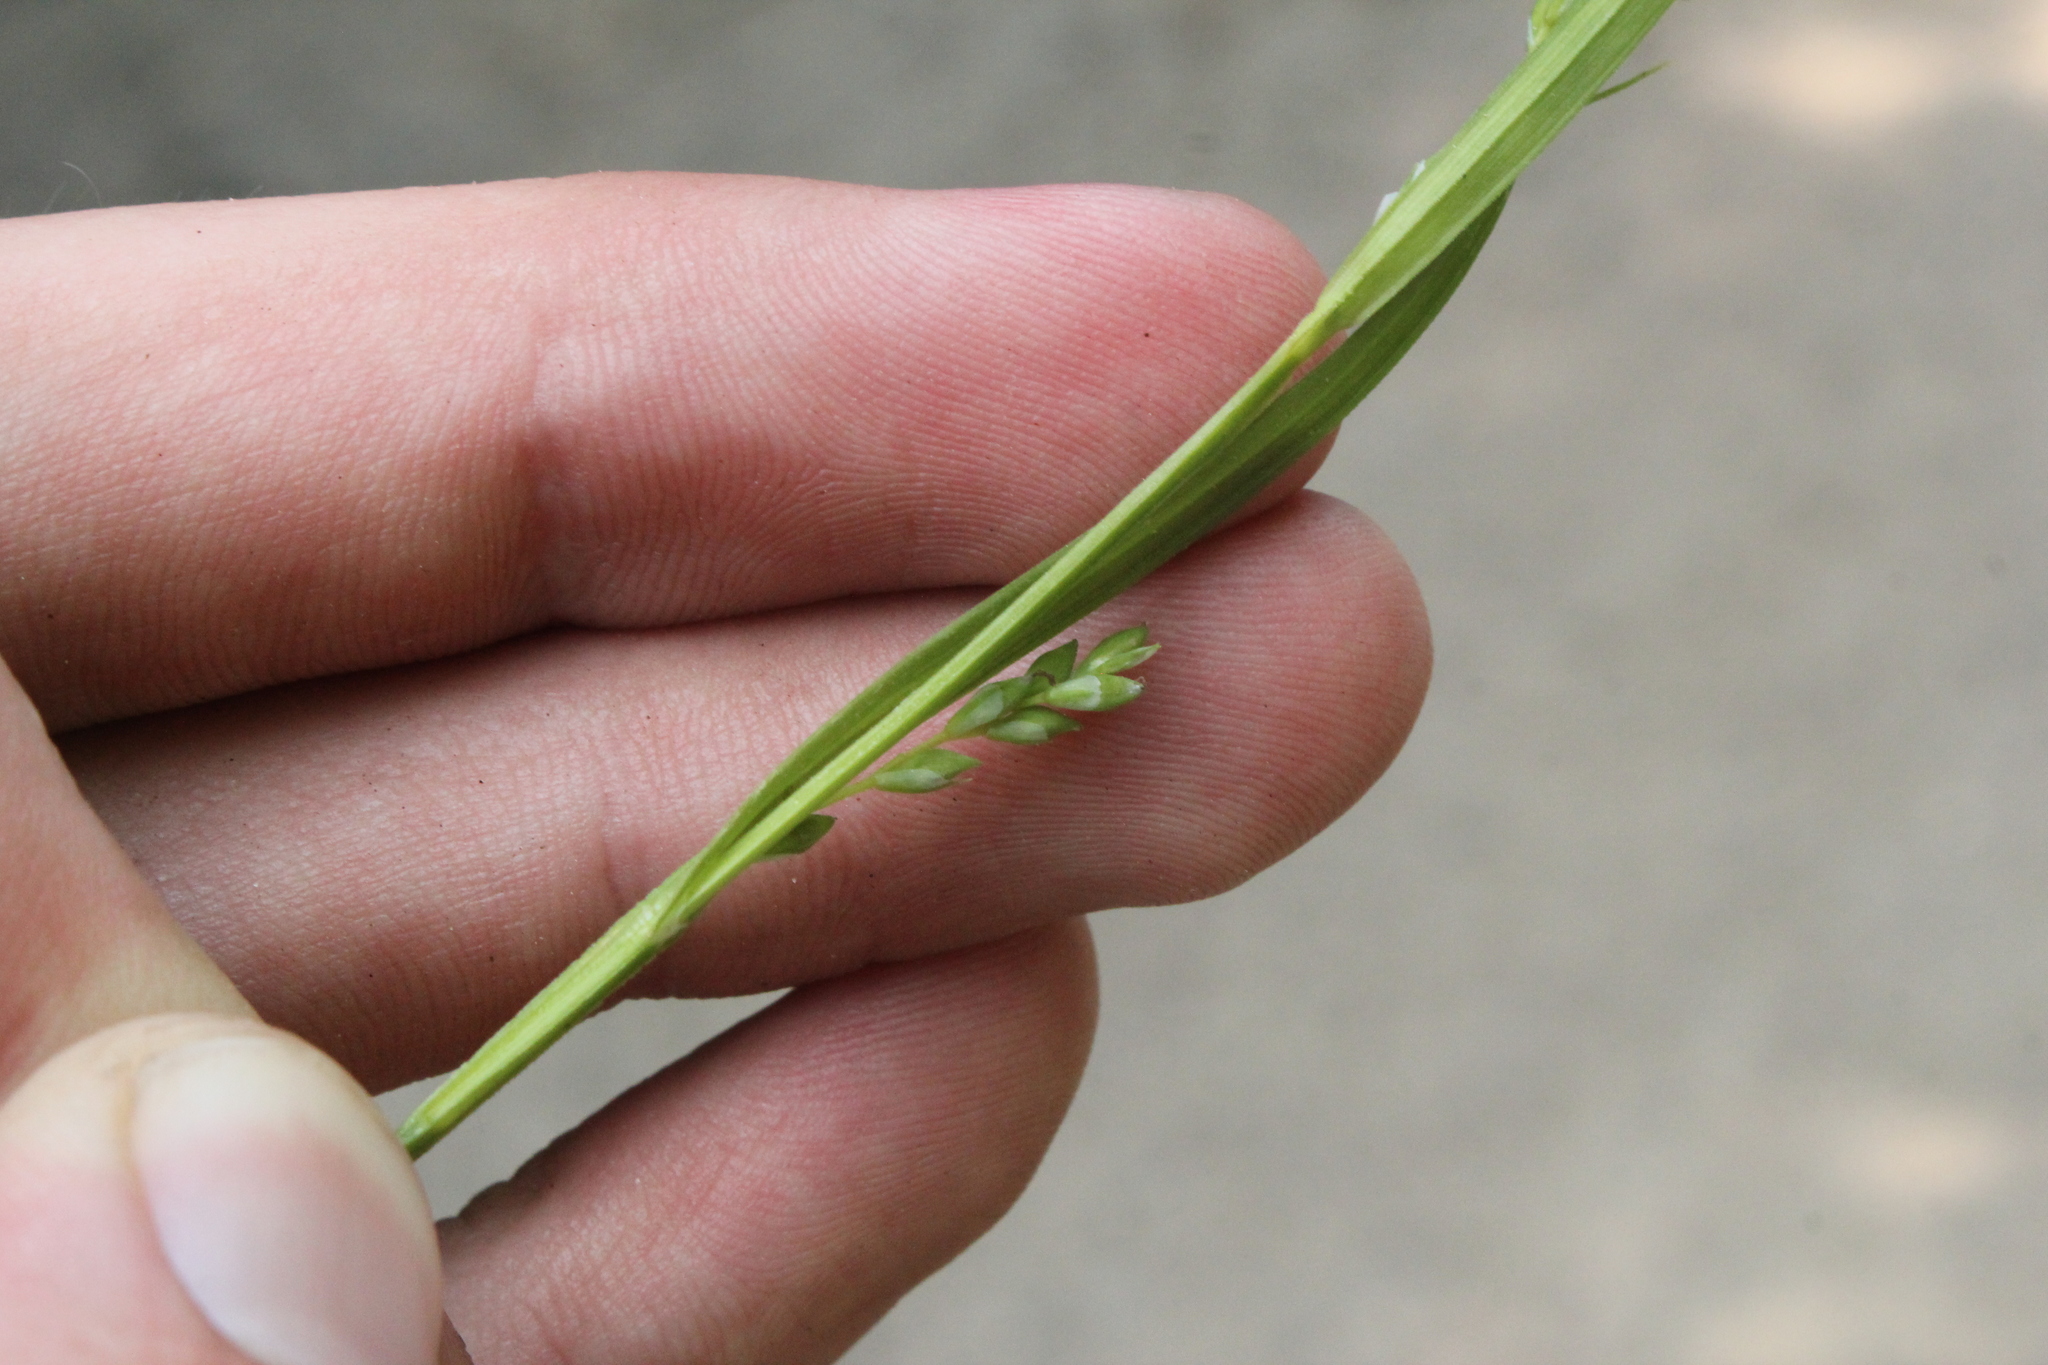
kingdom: Plantae
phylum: Tracheophyta
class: Liliopsida
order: Poales
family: Cyperaceae
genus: Carex
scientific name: Carex leptonervia
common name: Few-nerved wood sedge
